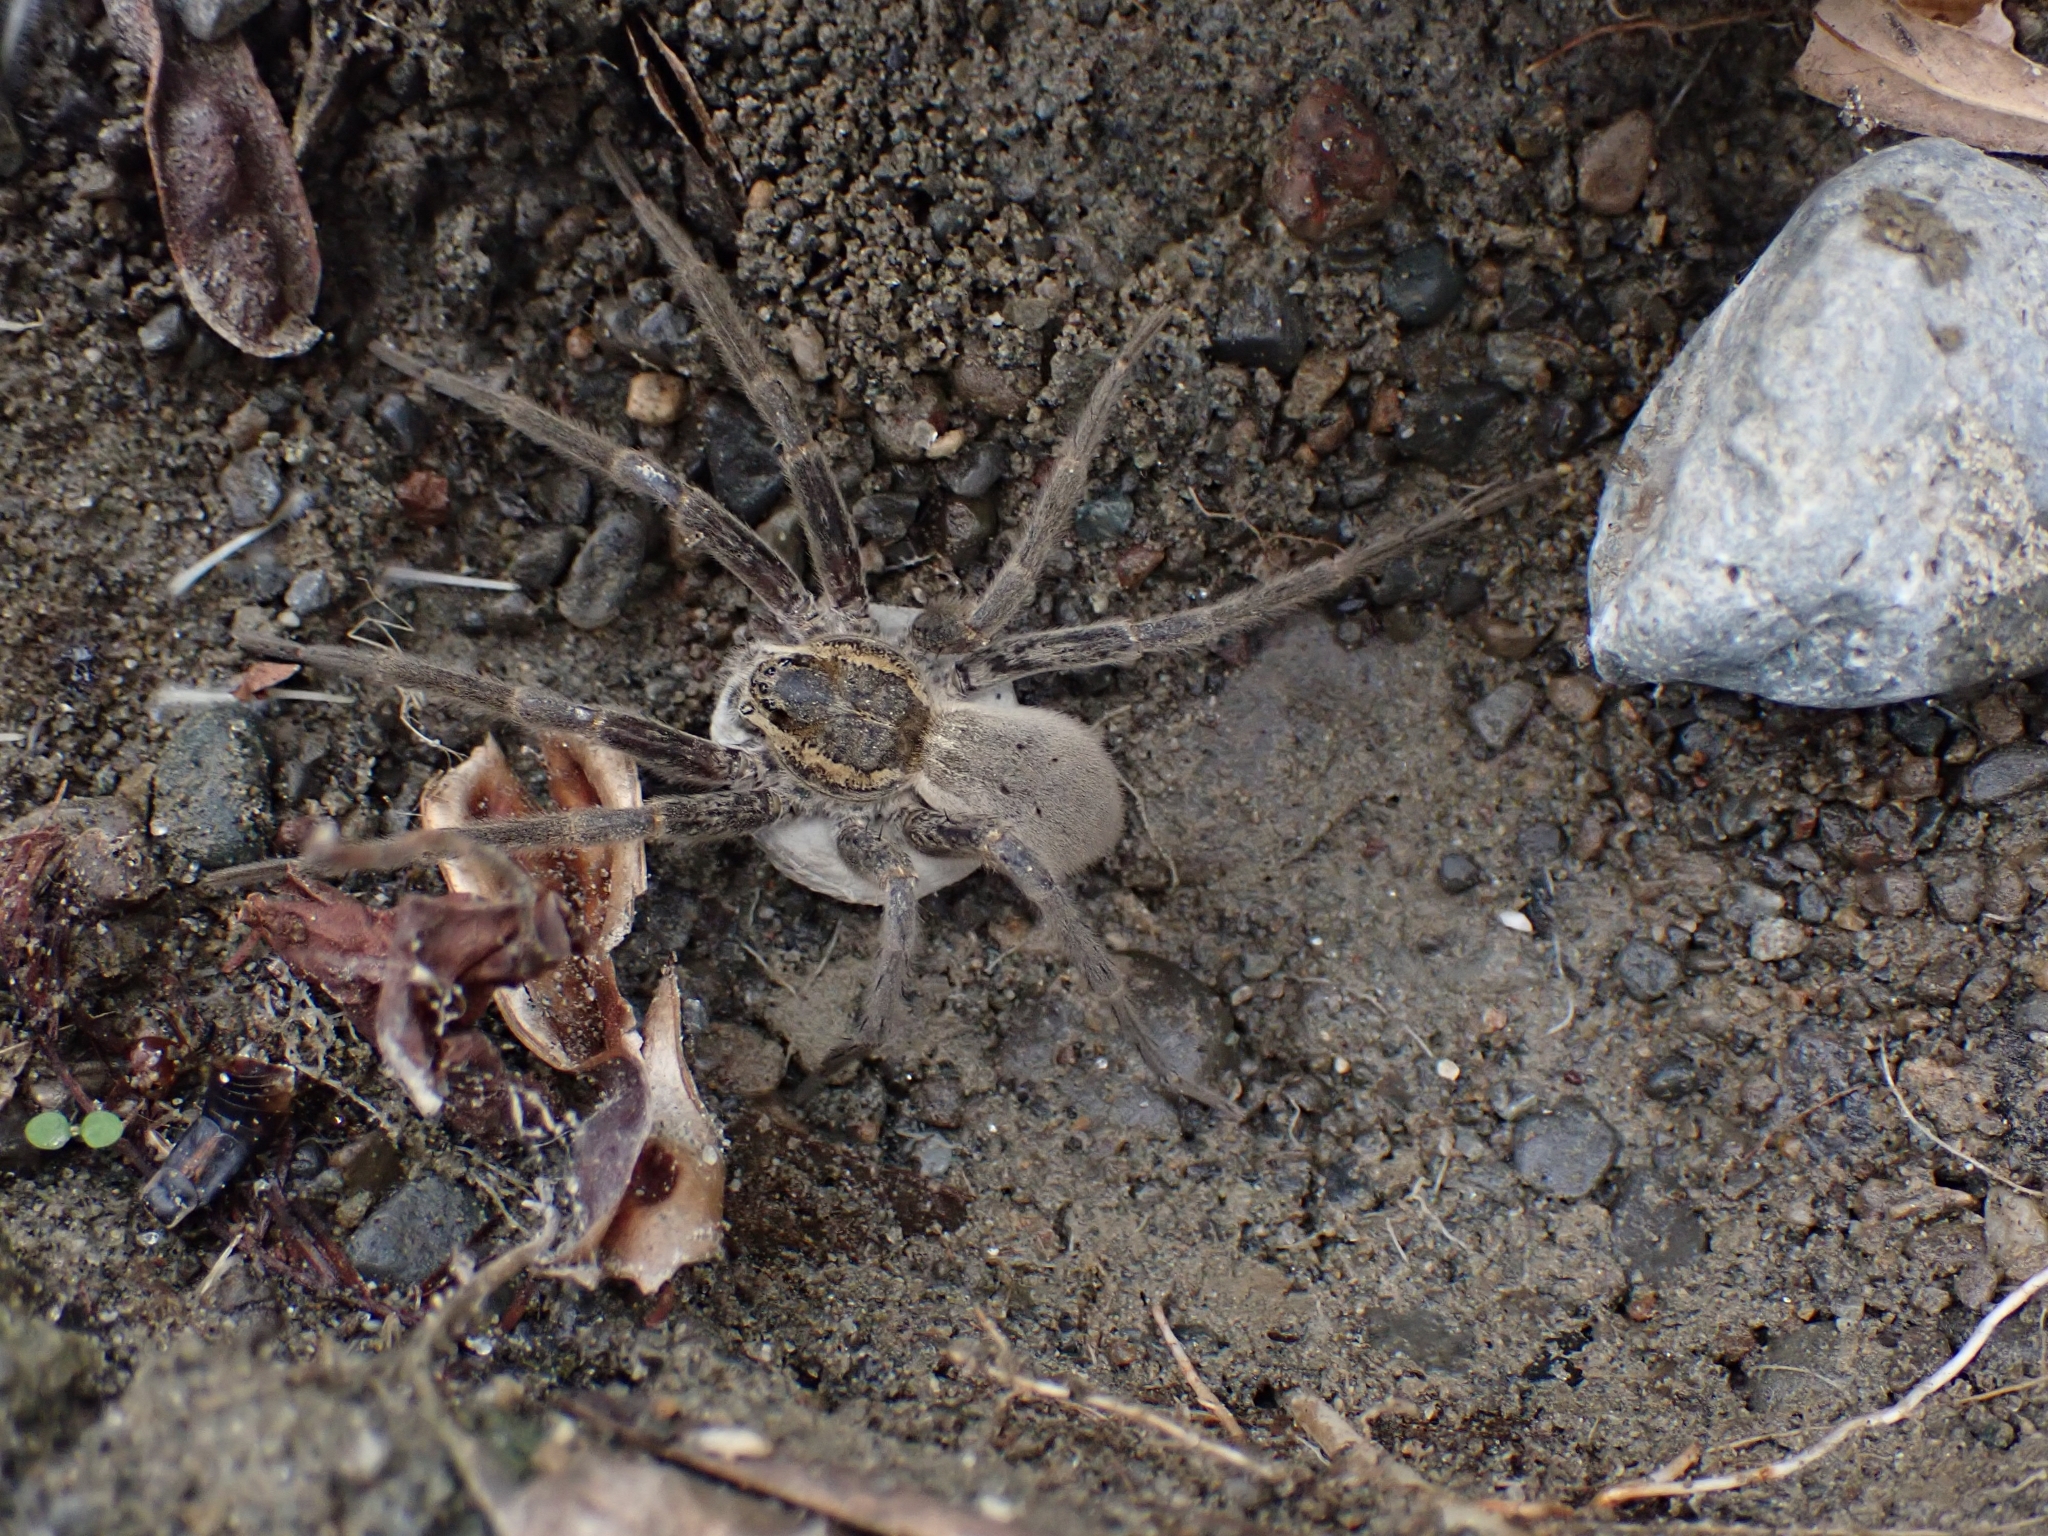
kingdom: Animalia
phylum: Arthropoda
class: Arachnida
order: Araneae
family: Pisauridae
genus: Dolomedes
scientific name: Dolomedes aquaticus
